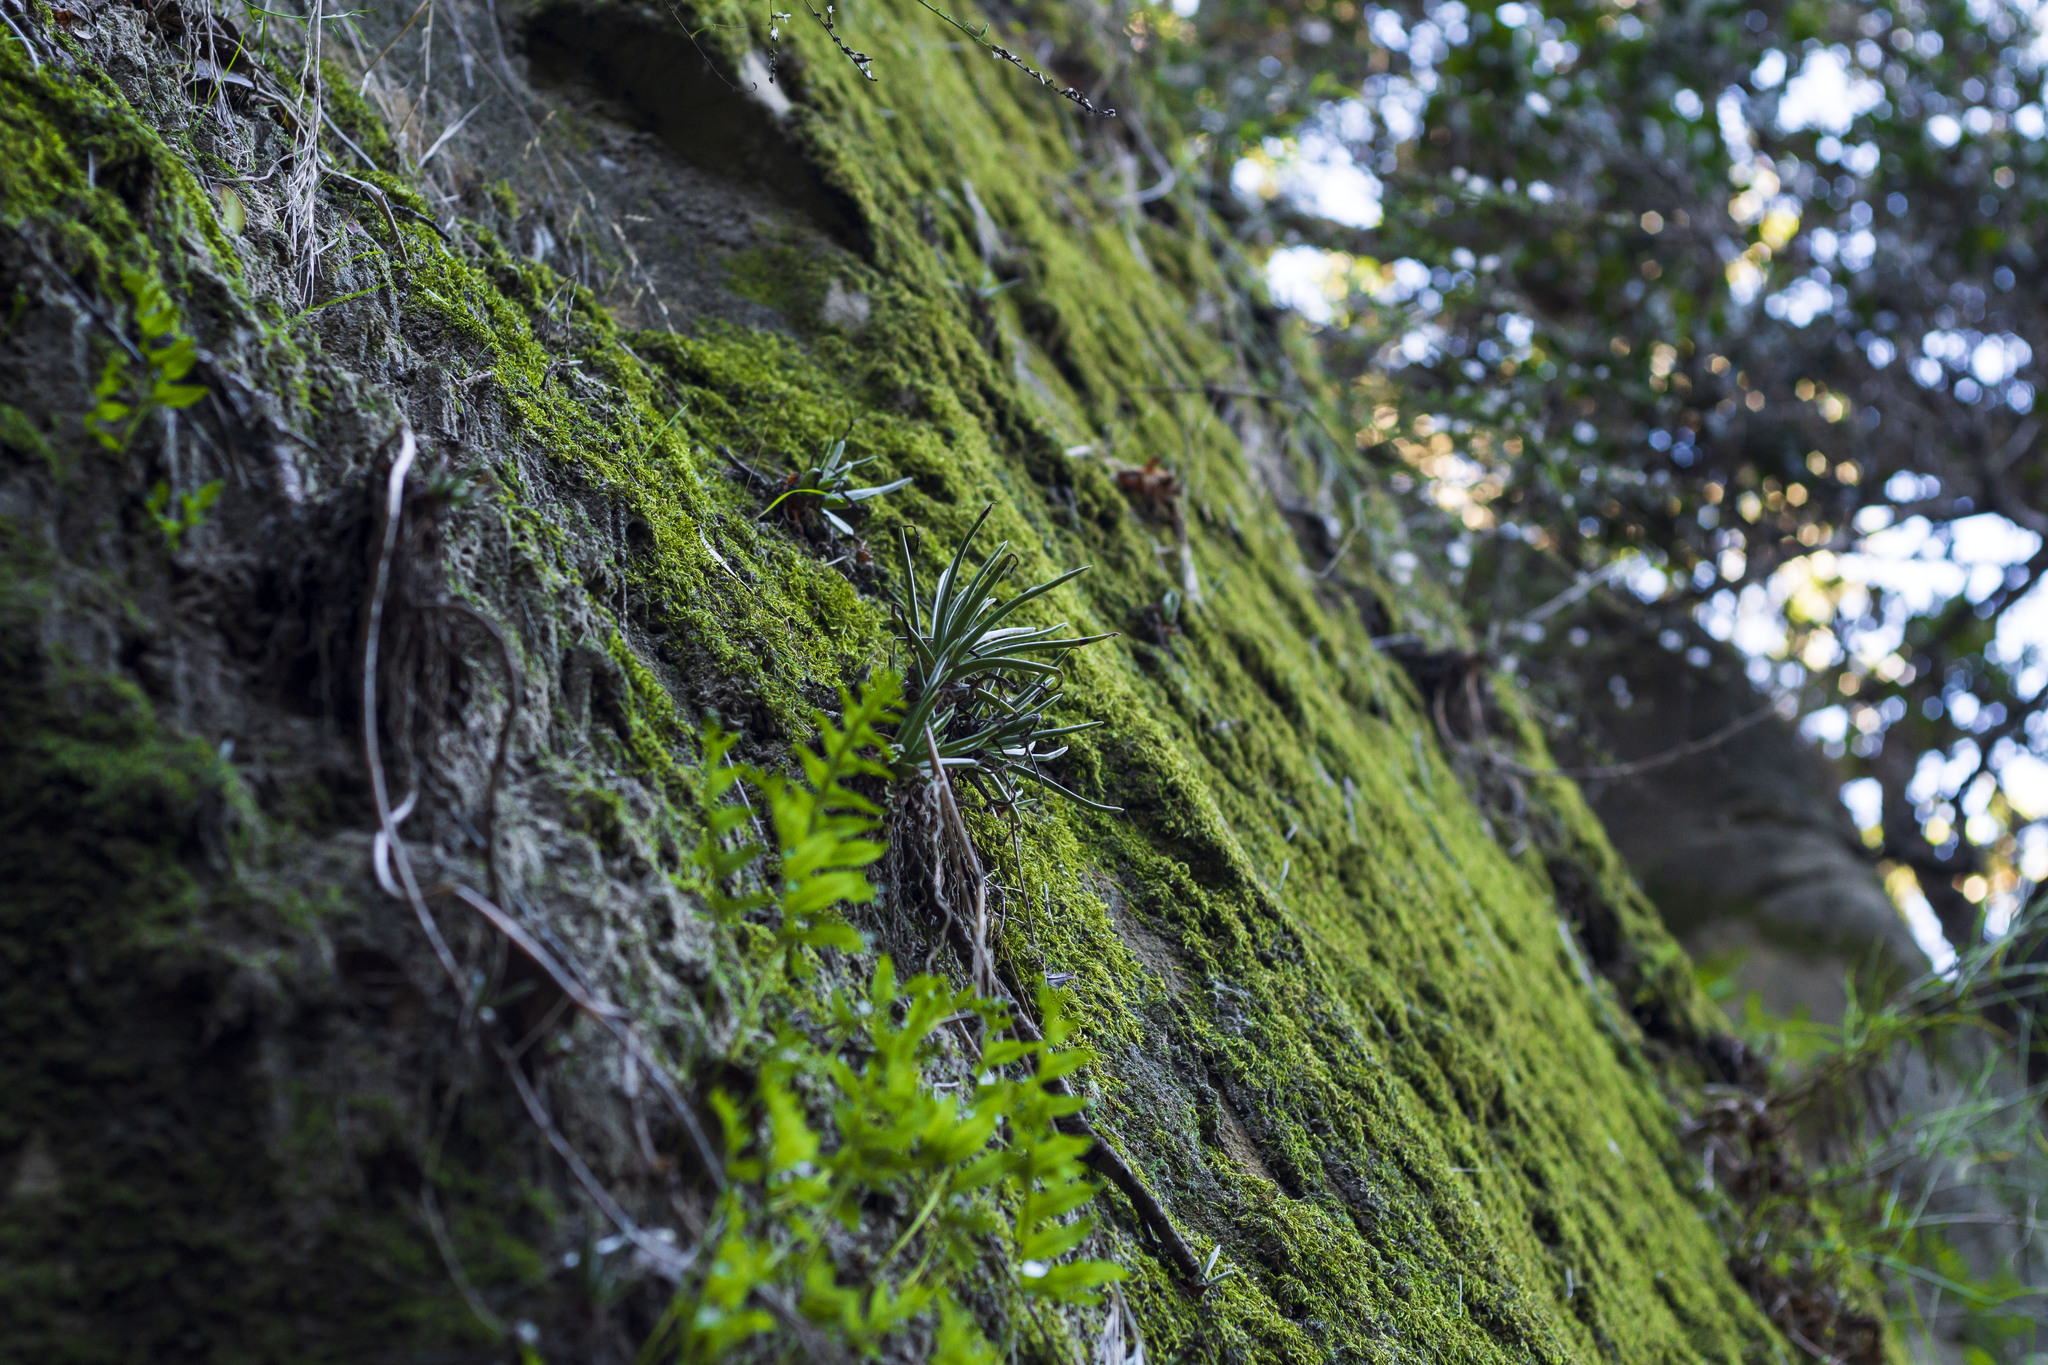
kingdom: Plantae
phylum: Tracheophyta
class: Magnoliopsida
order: Saxifragales
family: Crassulaceae
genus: Dudleya
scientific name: Dudleya edulis
